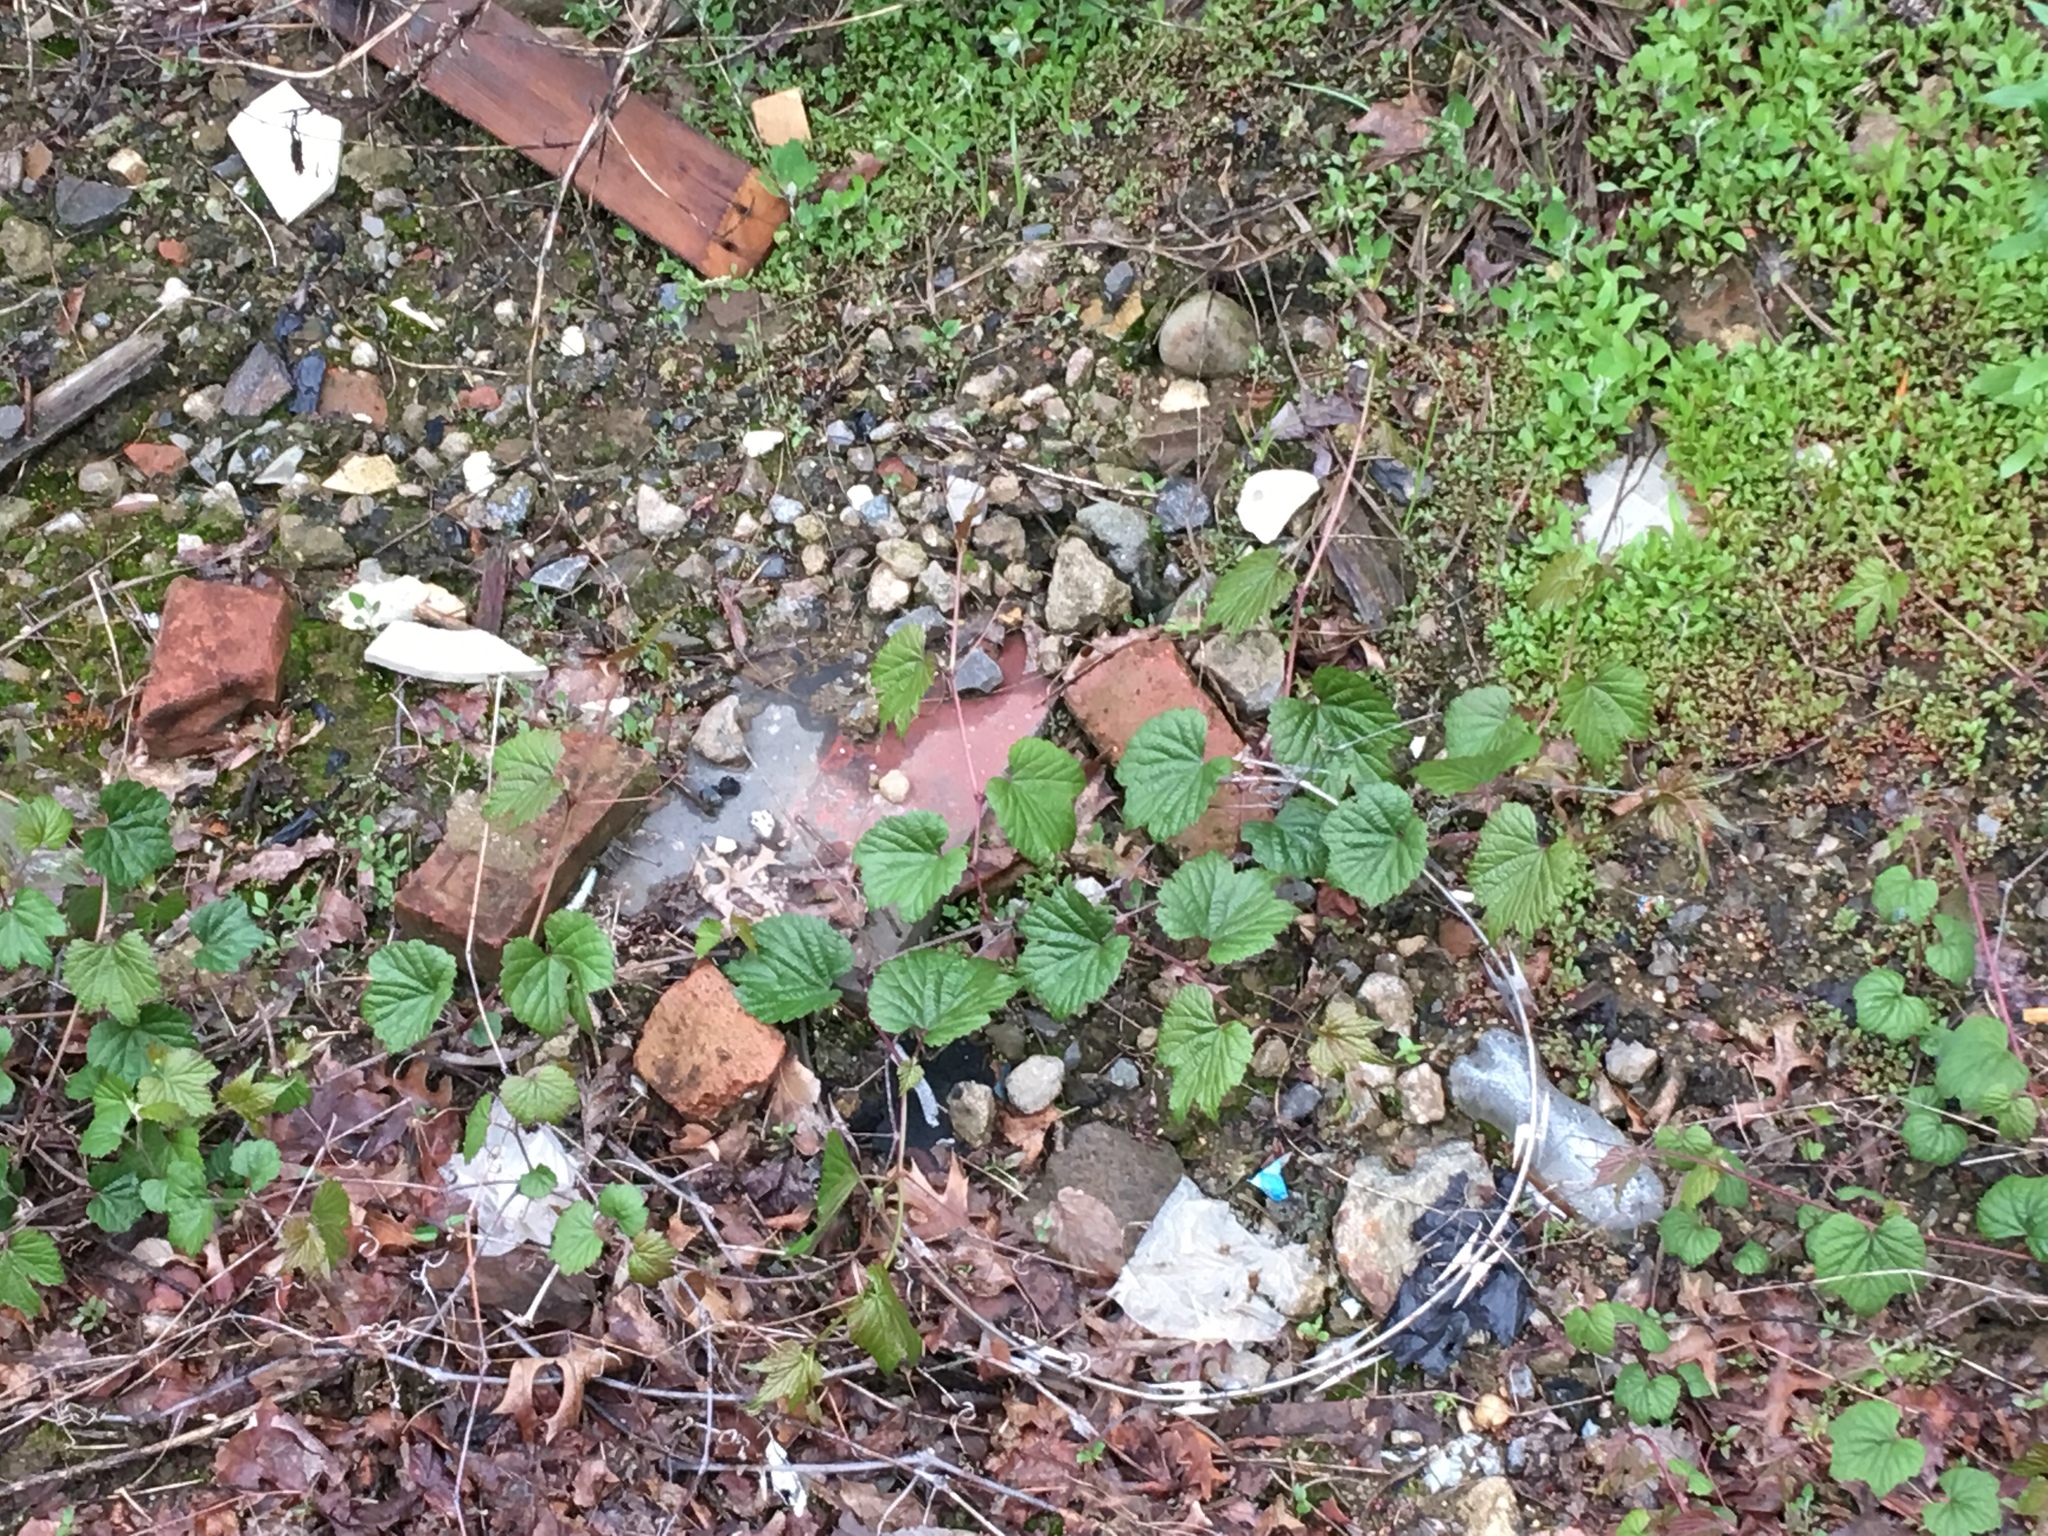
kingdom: Plantae
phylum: Tracheophyta
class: Magnoliopsida
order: Vitales
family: Vitaceae
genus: Ampelopsis
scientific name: Ampelopsis glandulosa
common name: Amur peppervine
